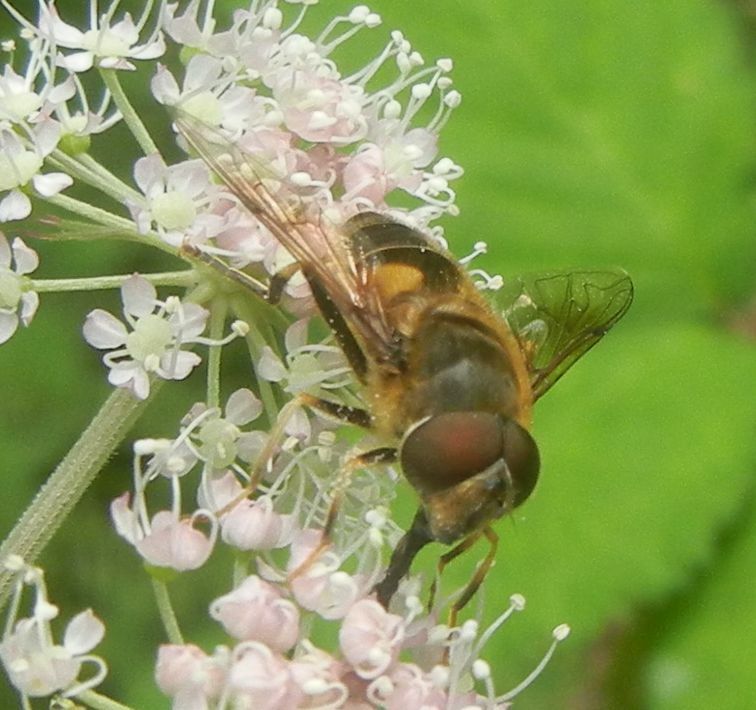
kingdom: Animalia
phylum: Arthropoda
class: Insecta
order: Diptera
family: Syrphidae
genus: Eristalis
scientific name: Eristalis pertinax
